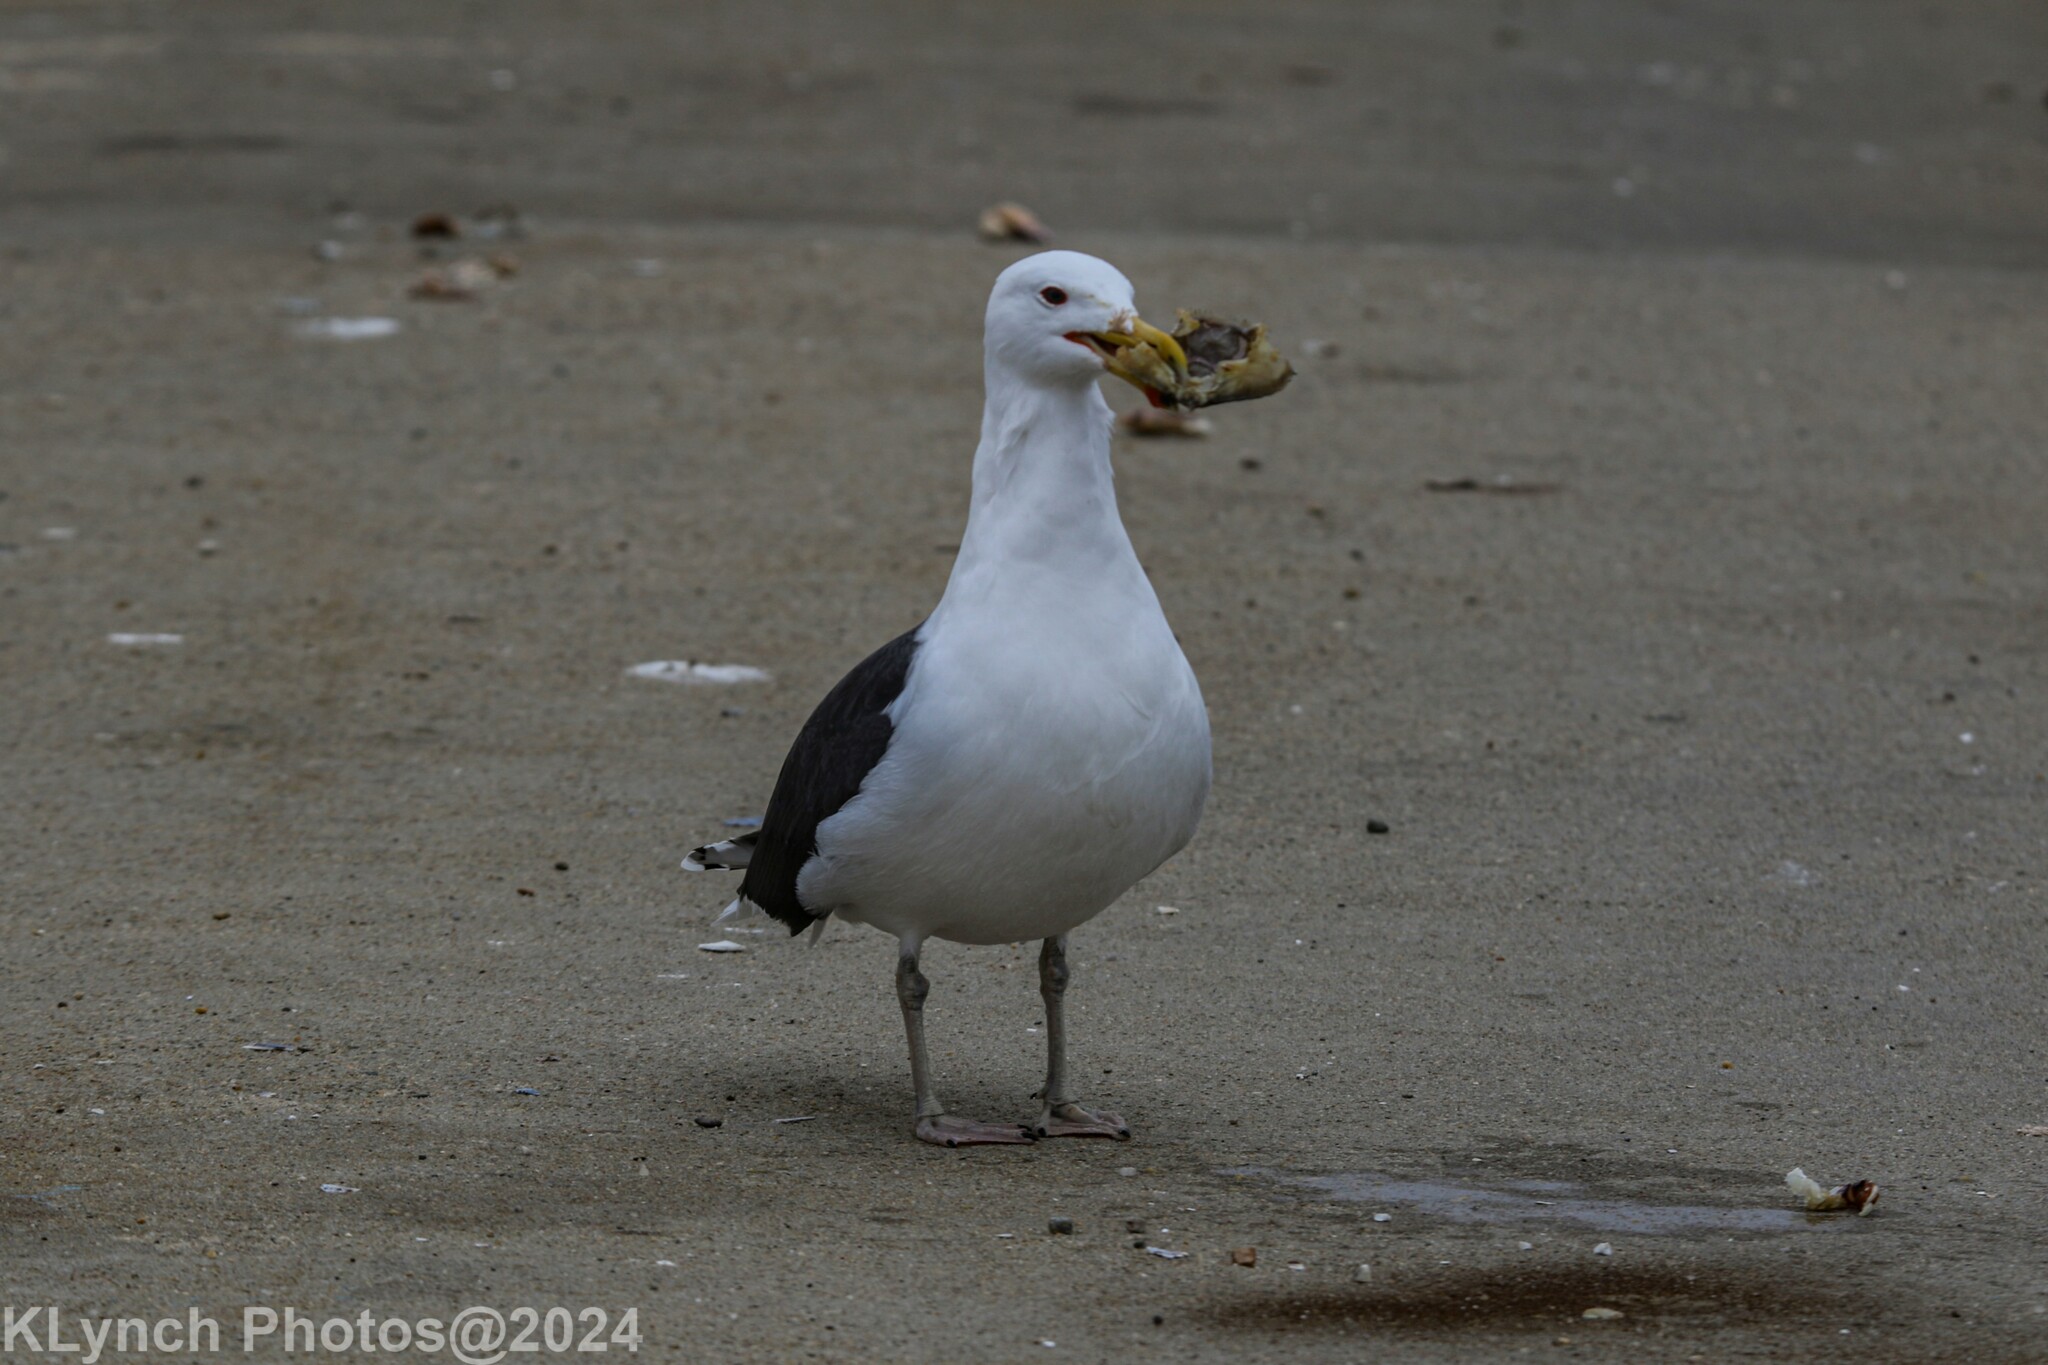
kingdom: Animalia
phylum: Chordata
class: Aves
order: Charadriiformes
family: Laridae
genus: Larus
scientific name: Larus marinus
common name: Great black-backed gull
